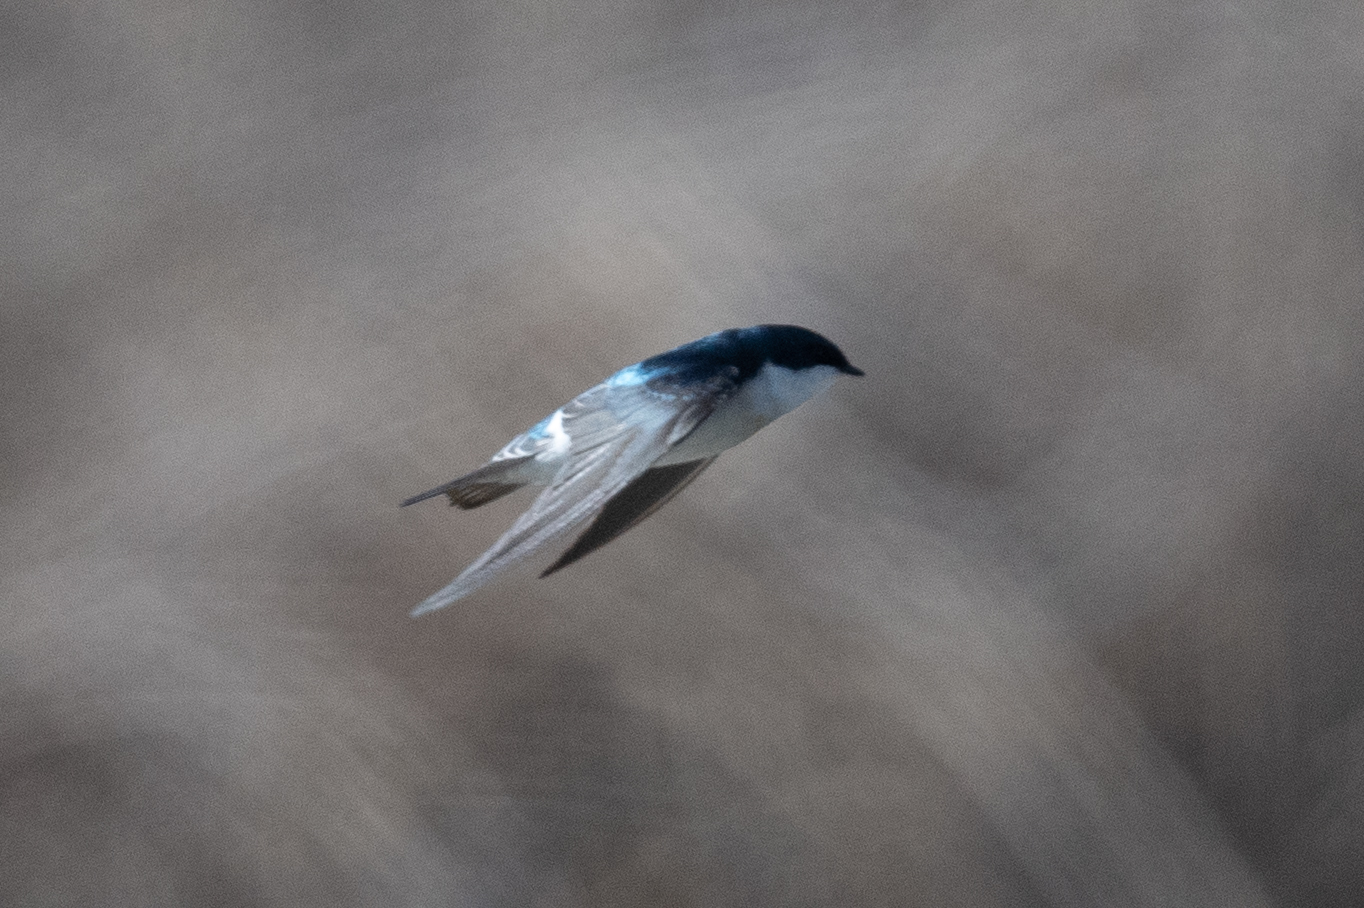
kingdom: Animalia
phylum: Chordata
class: Aves
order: Passeriformes
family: Hirundinidae
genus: Tachycineta
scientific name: Tachycineta bicolor
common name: Tree swallow
